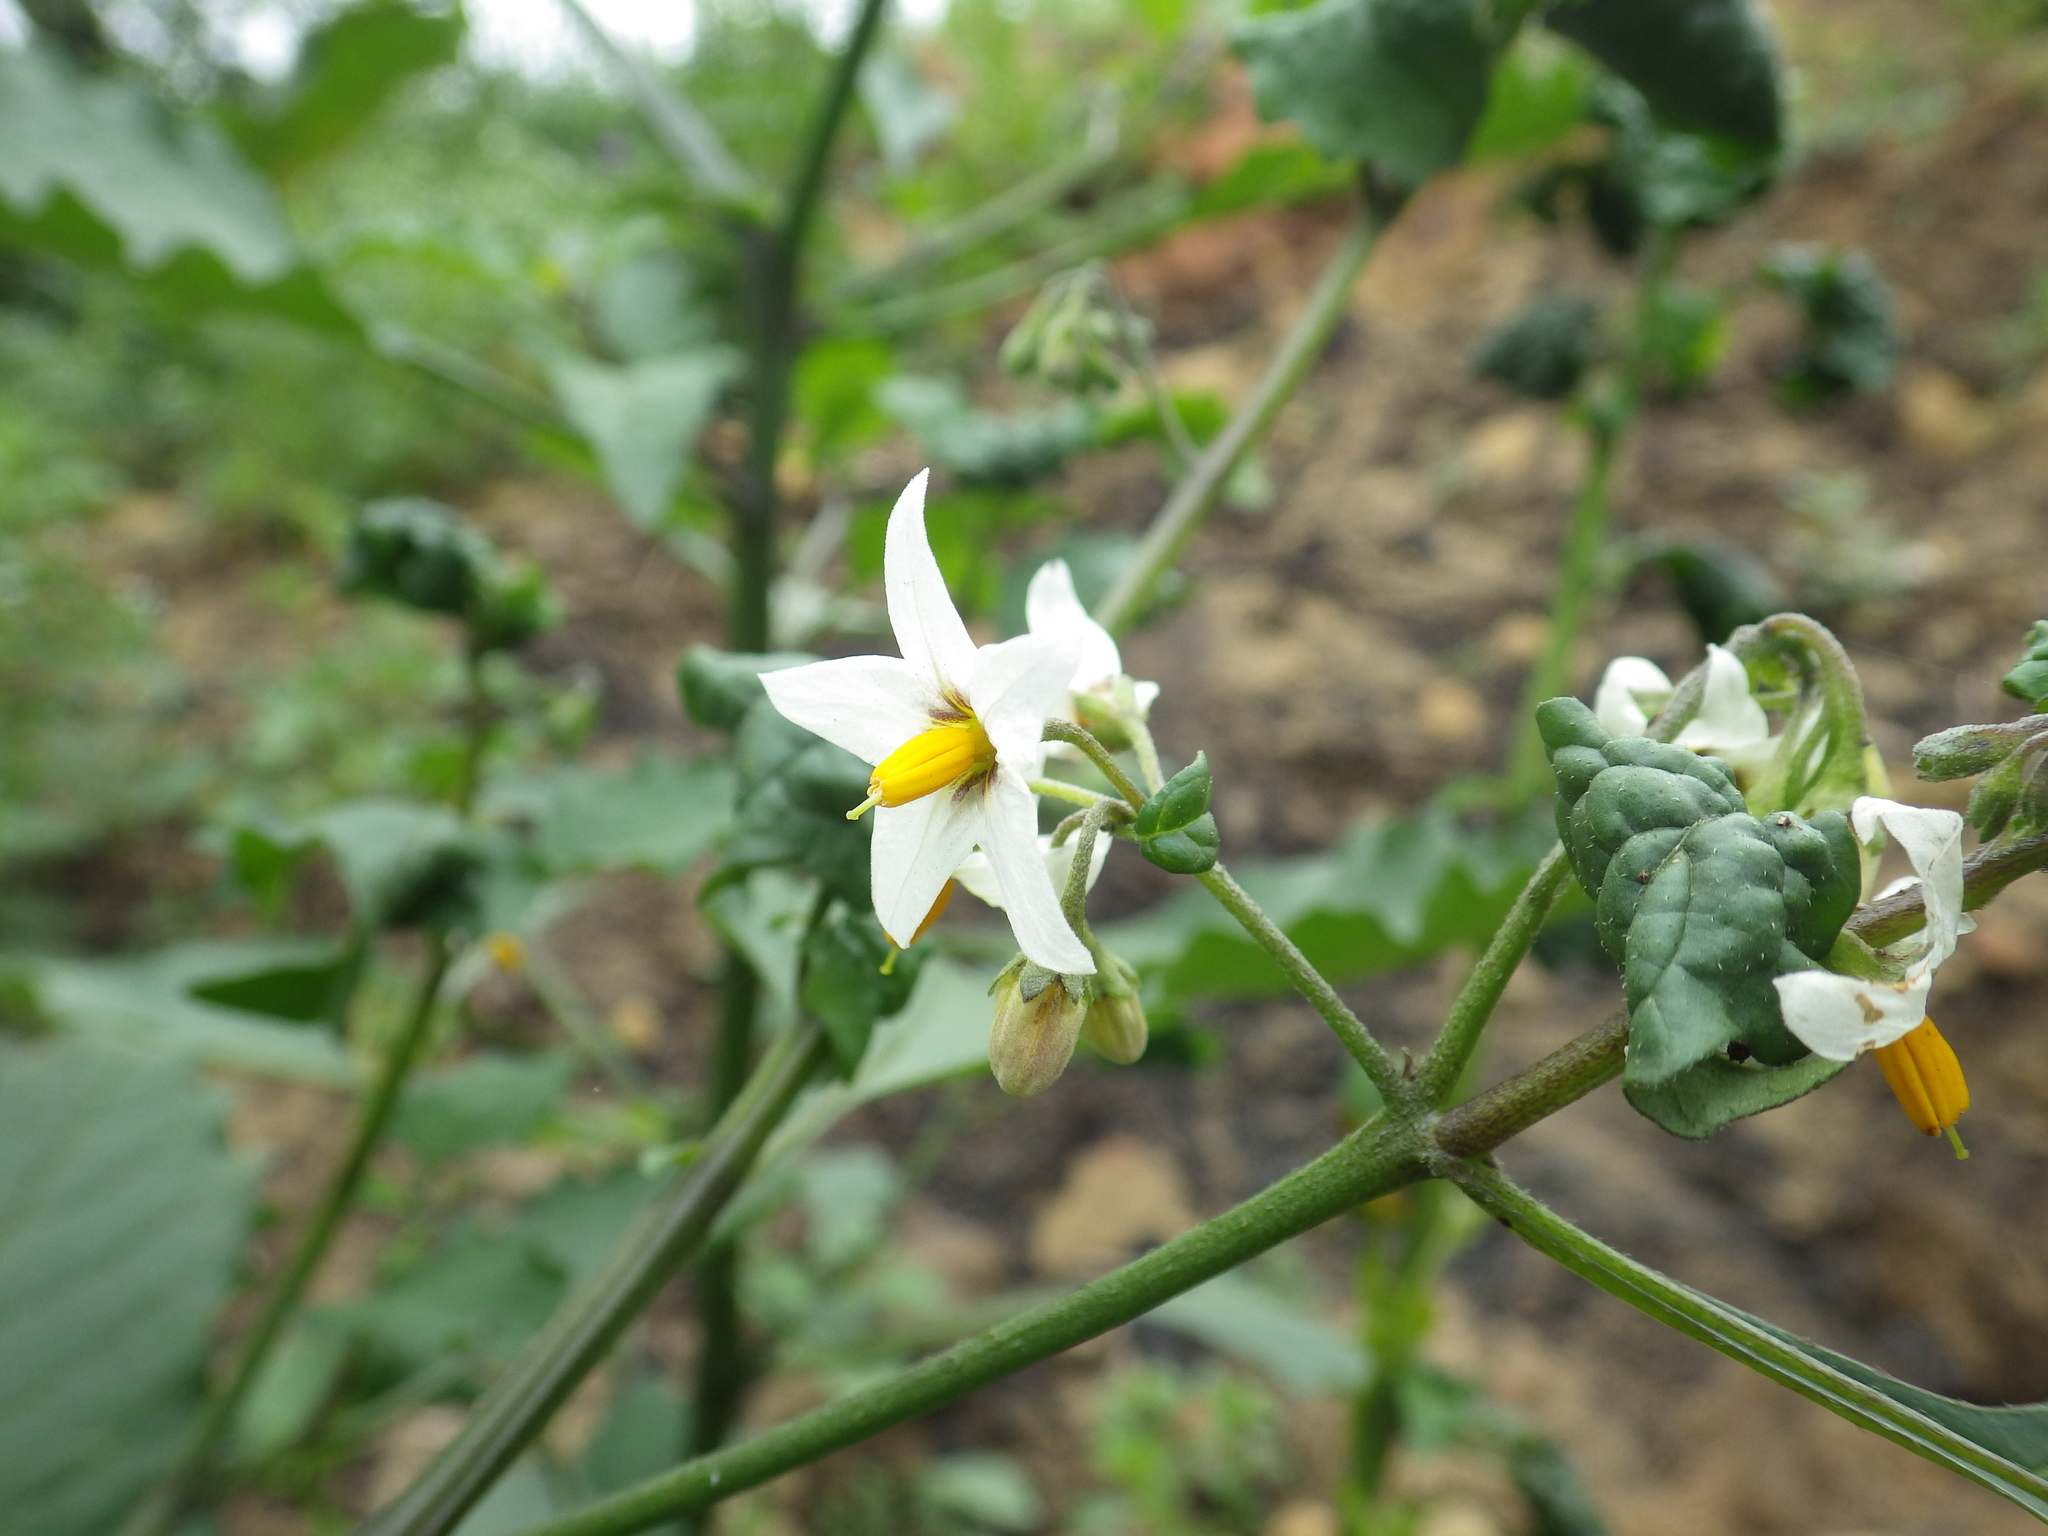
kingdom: Plantae
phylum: Tracheophyta
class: Magnoliopsida
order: Solanales
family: Solanaceae
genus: Solanum
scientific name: Solanum douglasii
